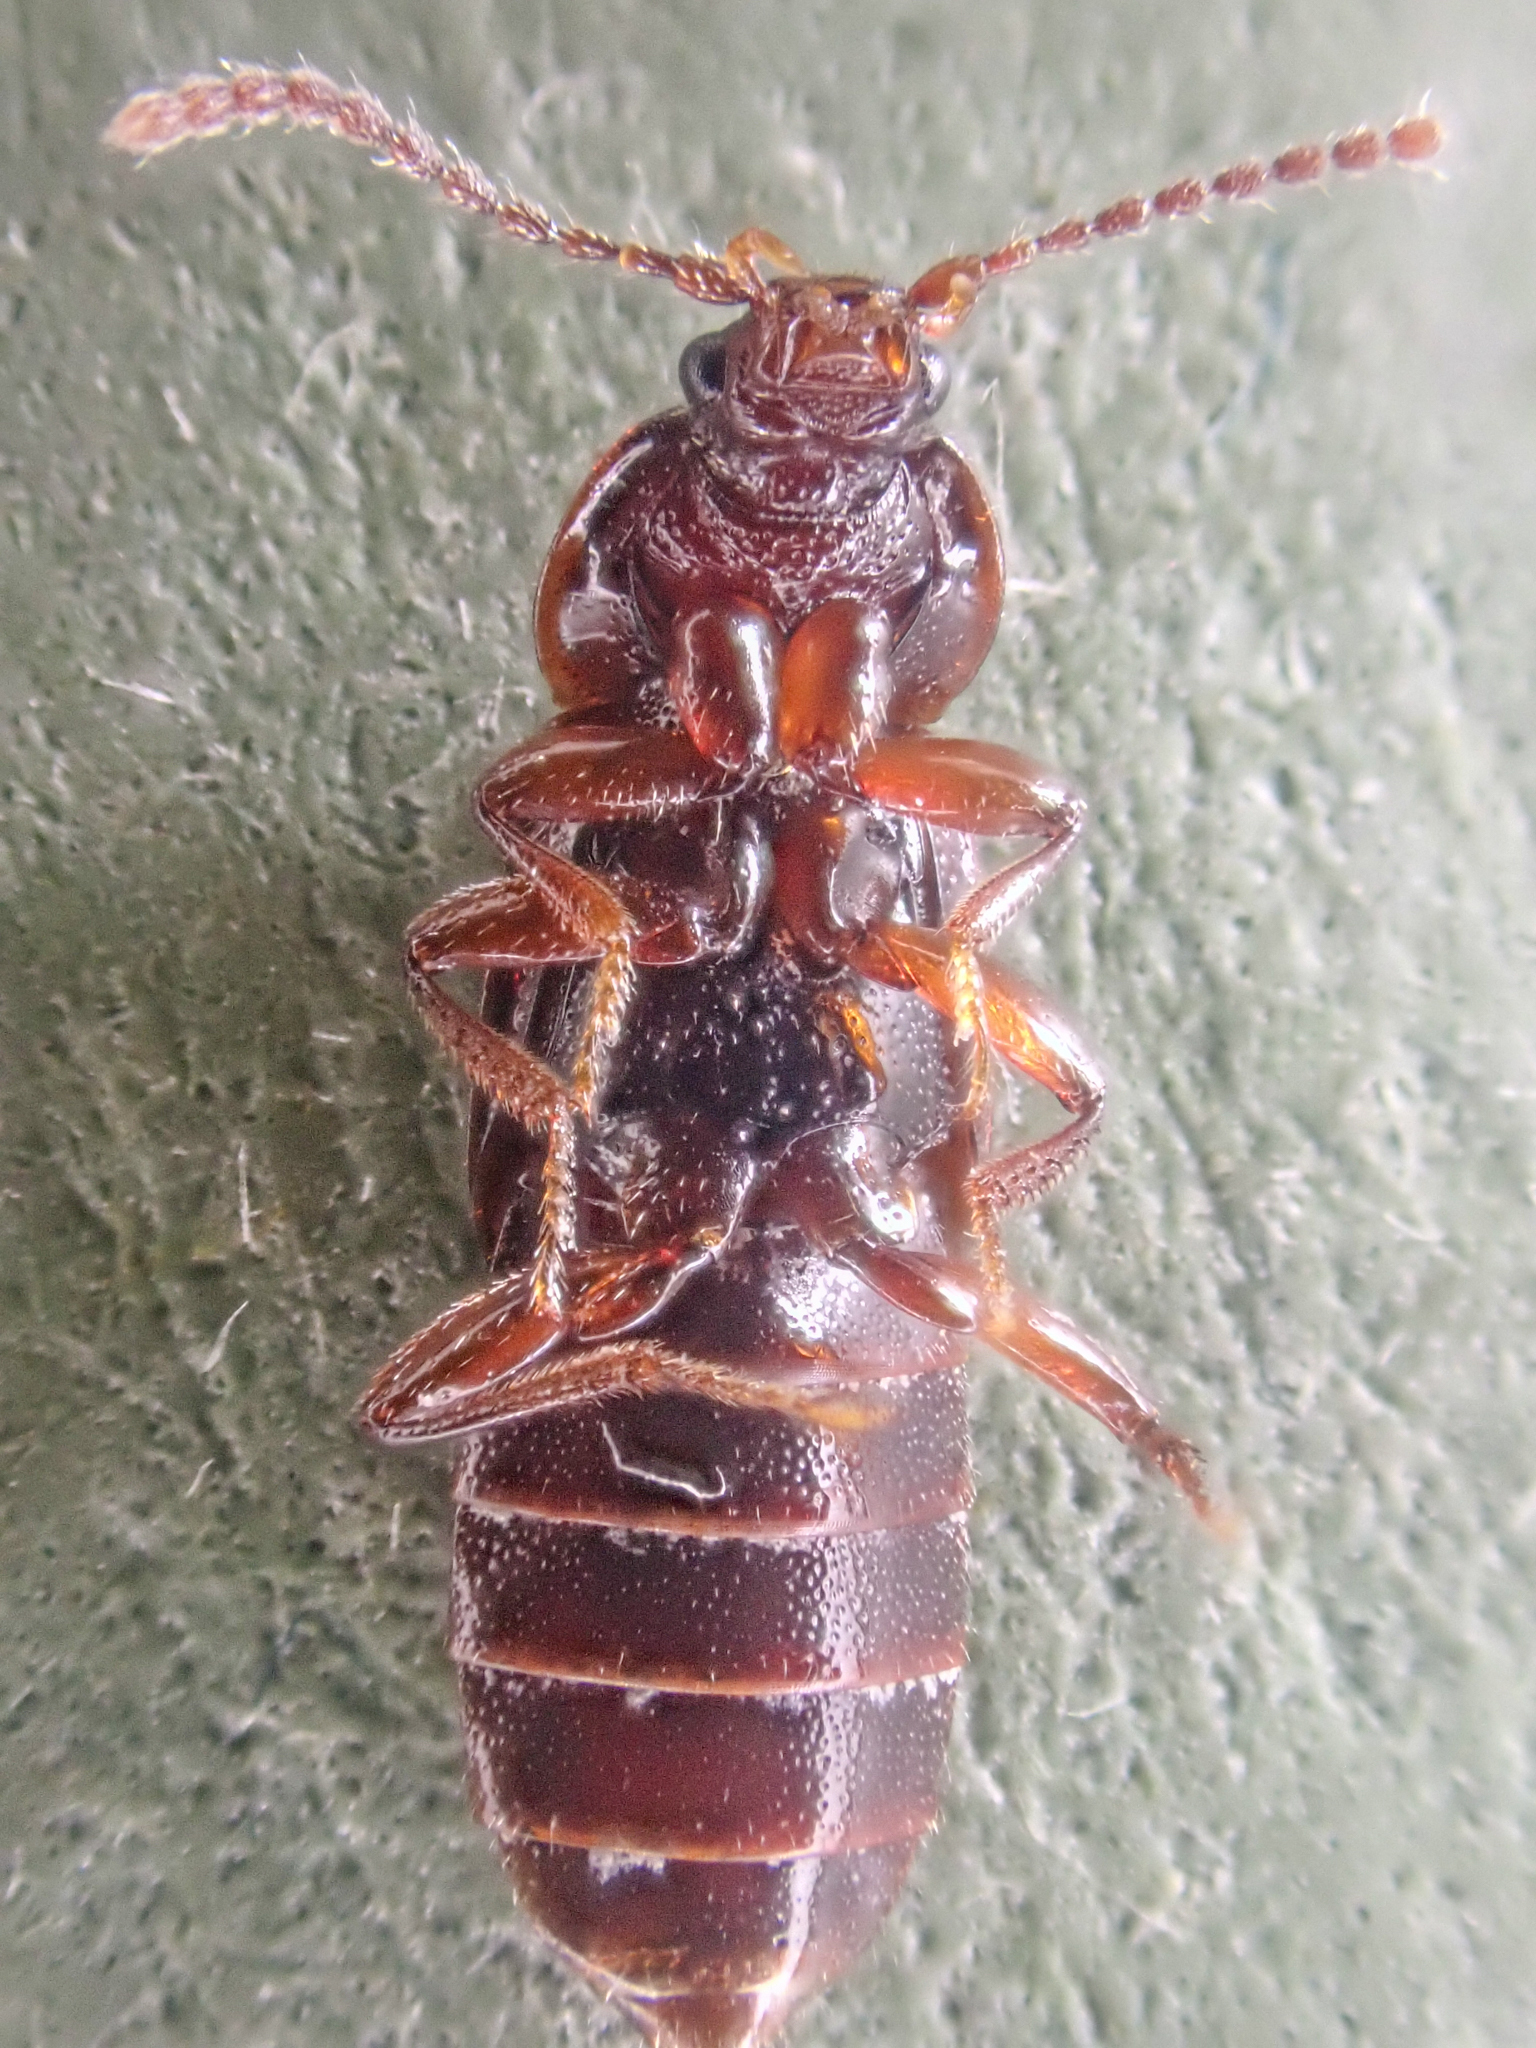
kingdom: Animalia
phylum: Arthropoda
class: Insecta
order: Coleoptera
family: Staphylinidae
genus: Acidota
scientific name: Acidota crenata
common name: Staph beetle
